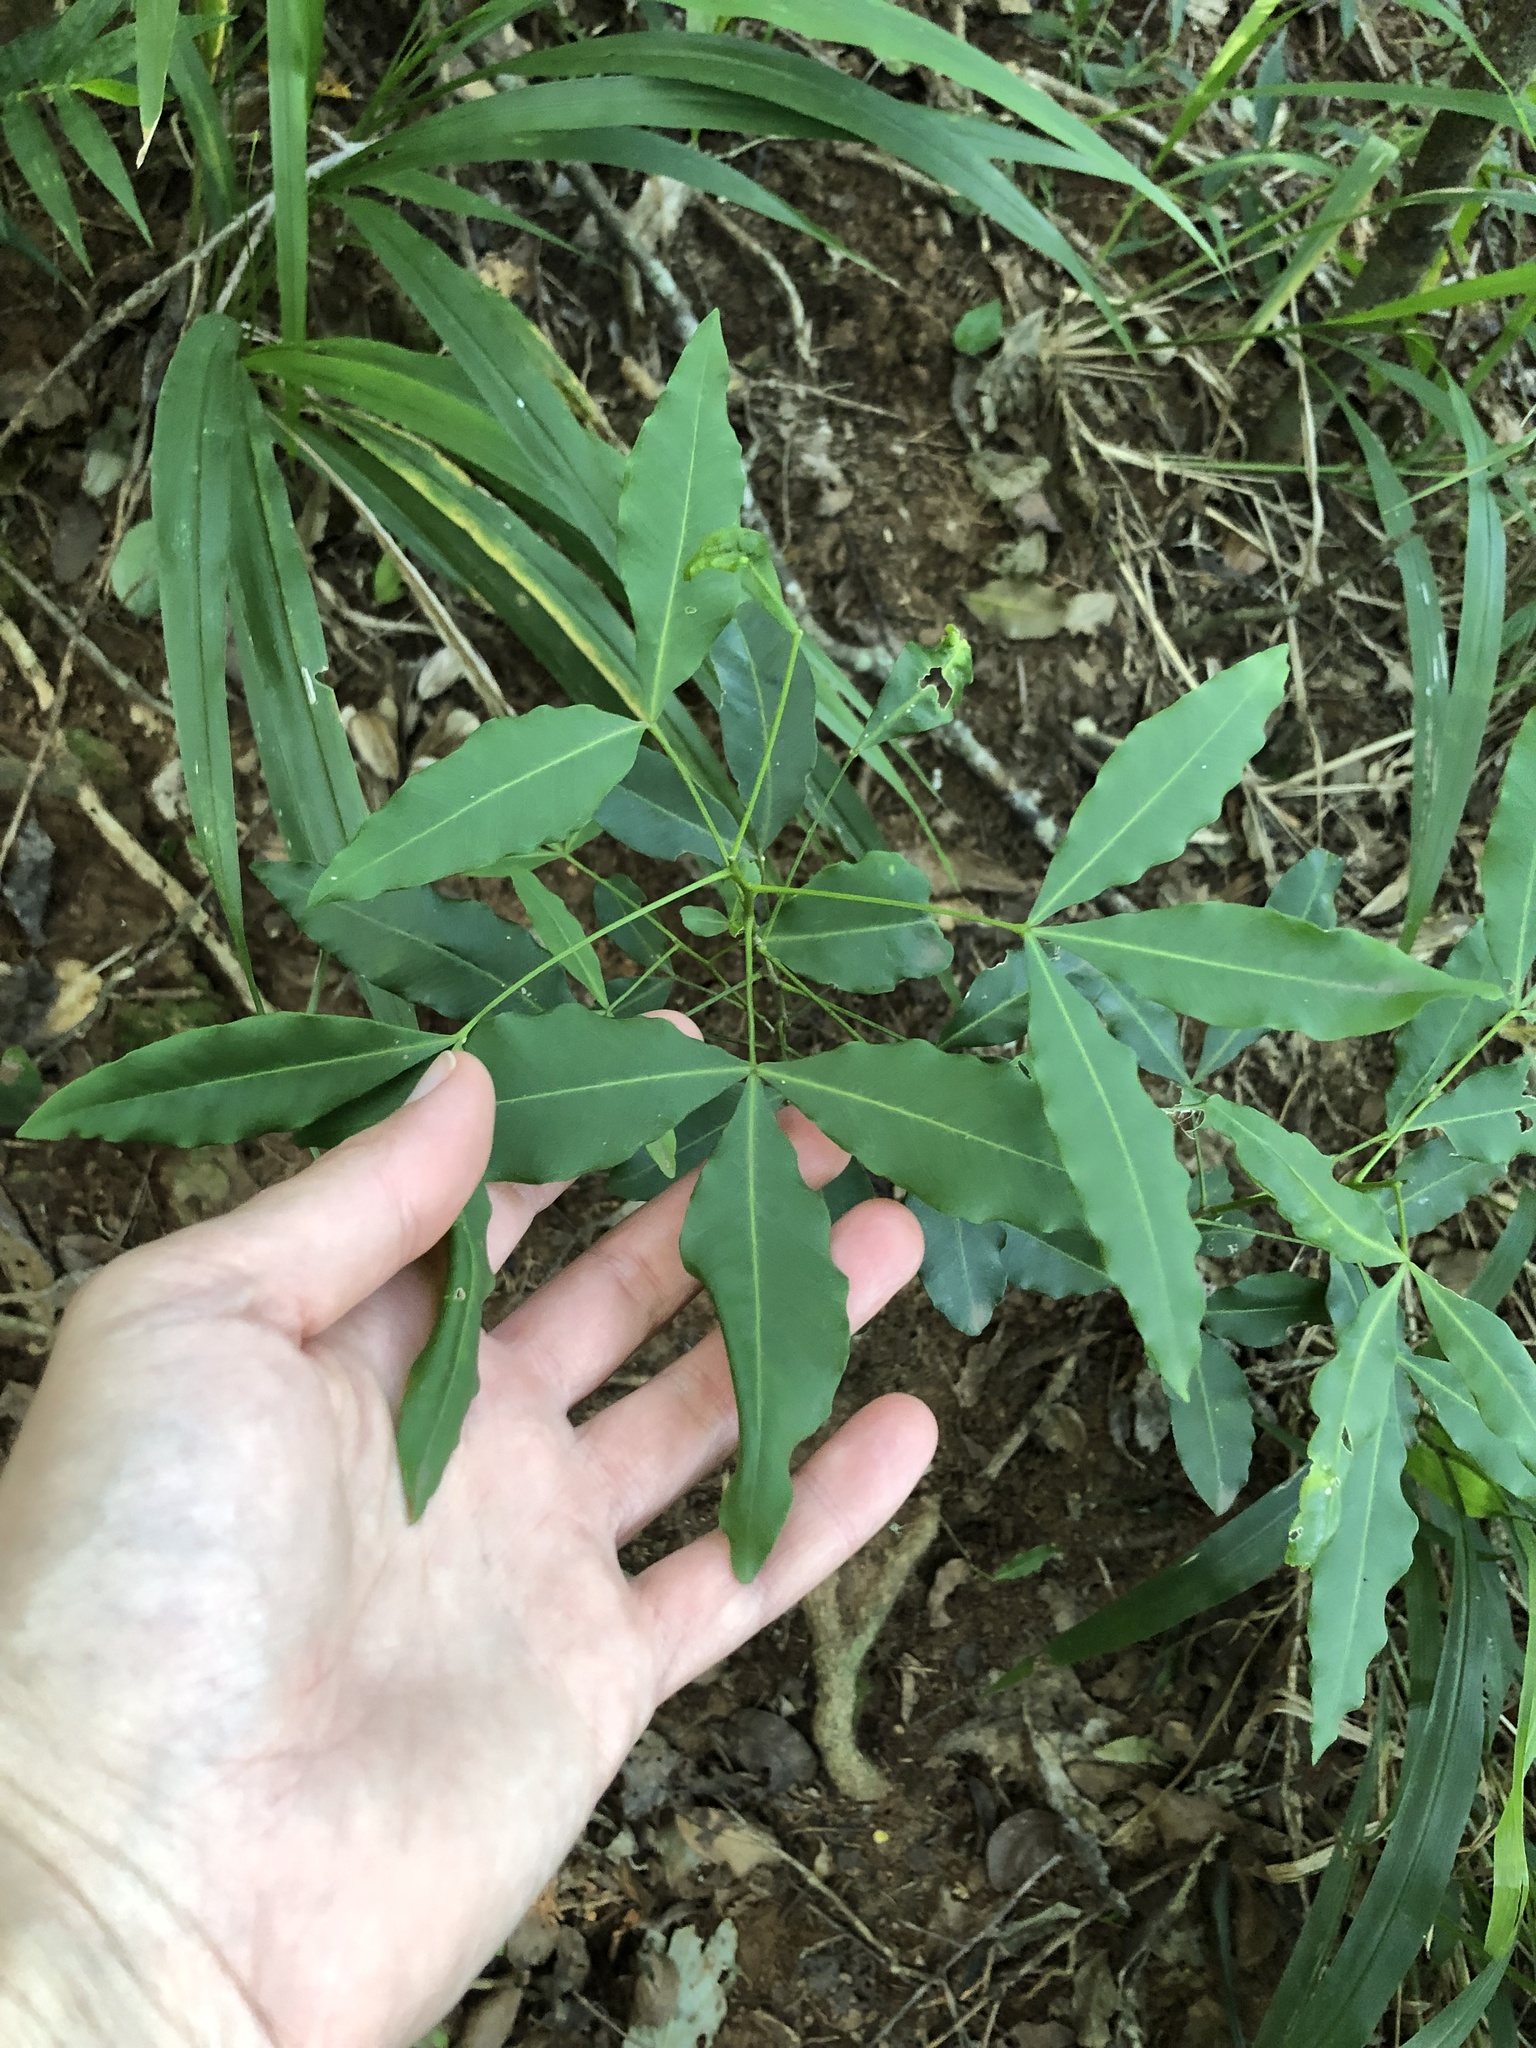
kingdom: Plantae
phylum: Tracheophyta
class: Magnoliopsida
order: Sapindales
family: Rutaceae
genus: Vepris
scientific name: Vepris lanceolata
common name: White ironwood
